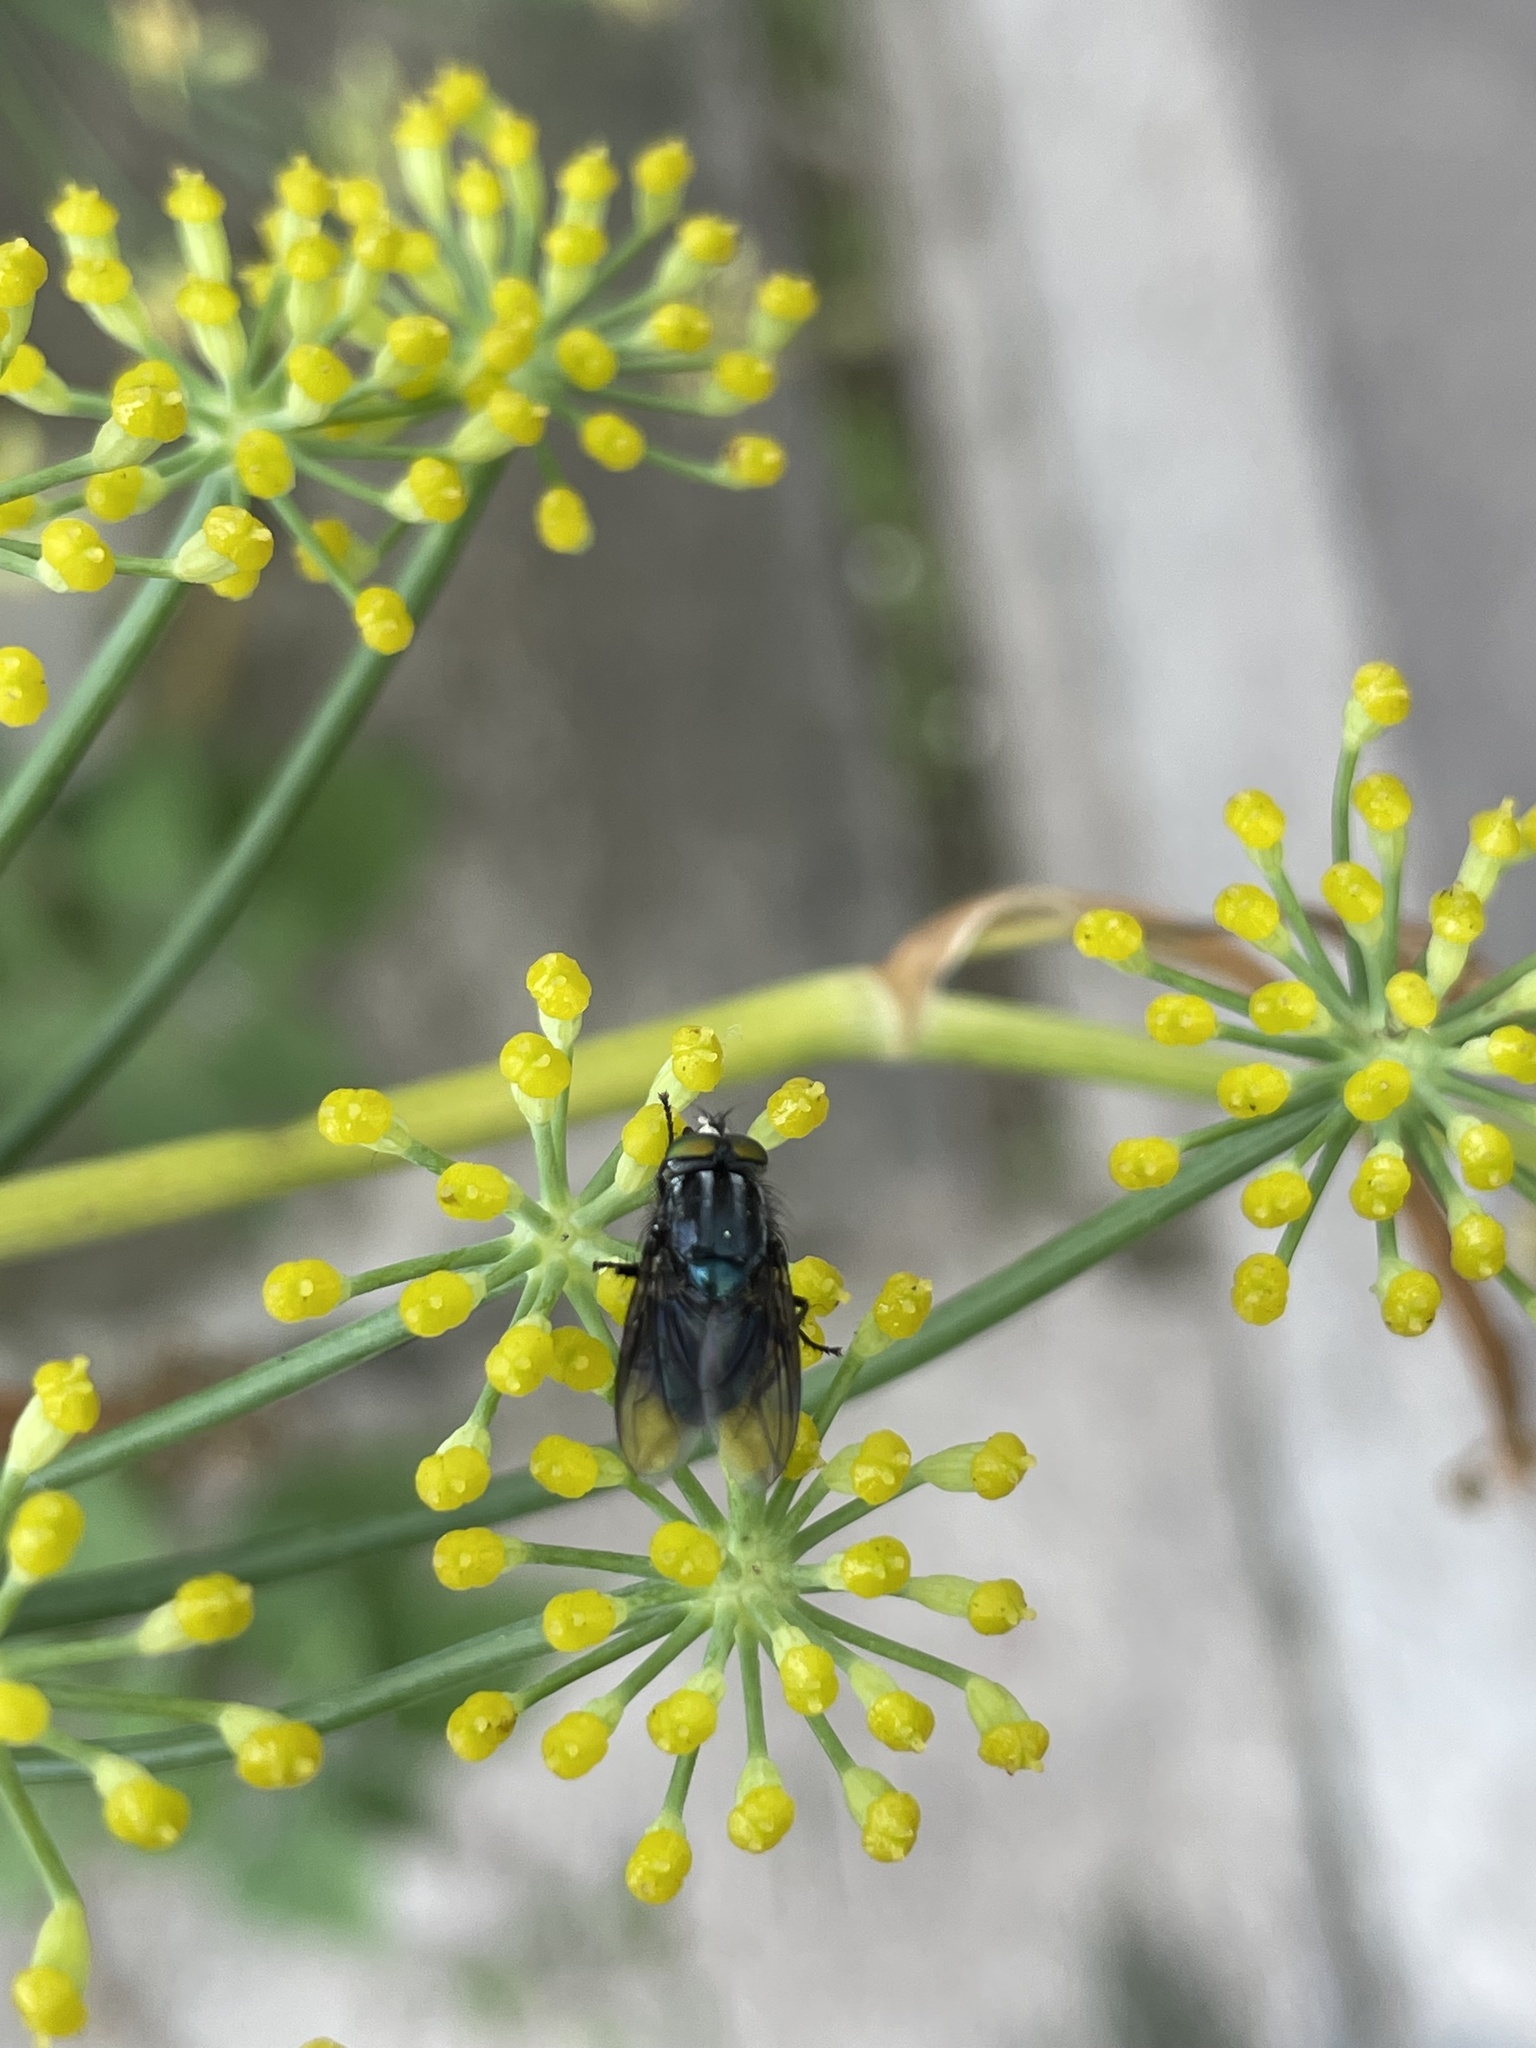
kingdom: Animalia
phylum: Arthropoda
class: Insecta
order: Diptera
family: Calliphoridae
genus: Sarconesia
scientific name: Sarconesia magellanica
